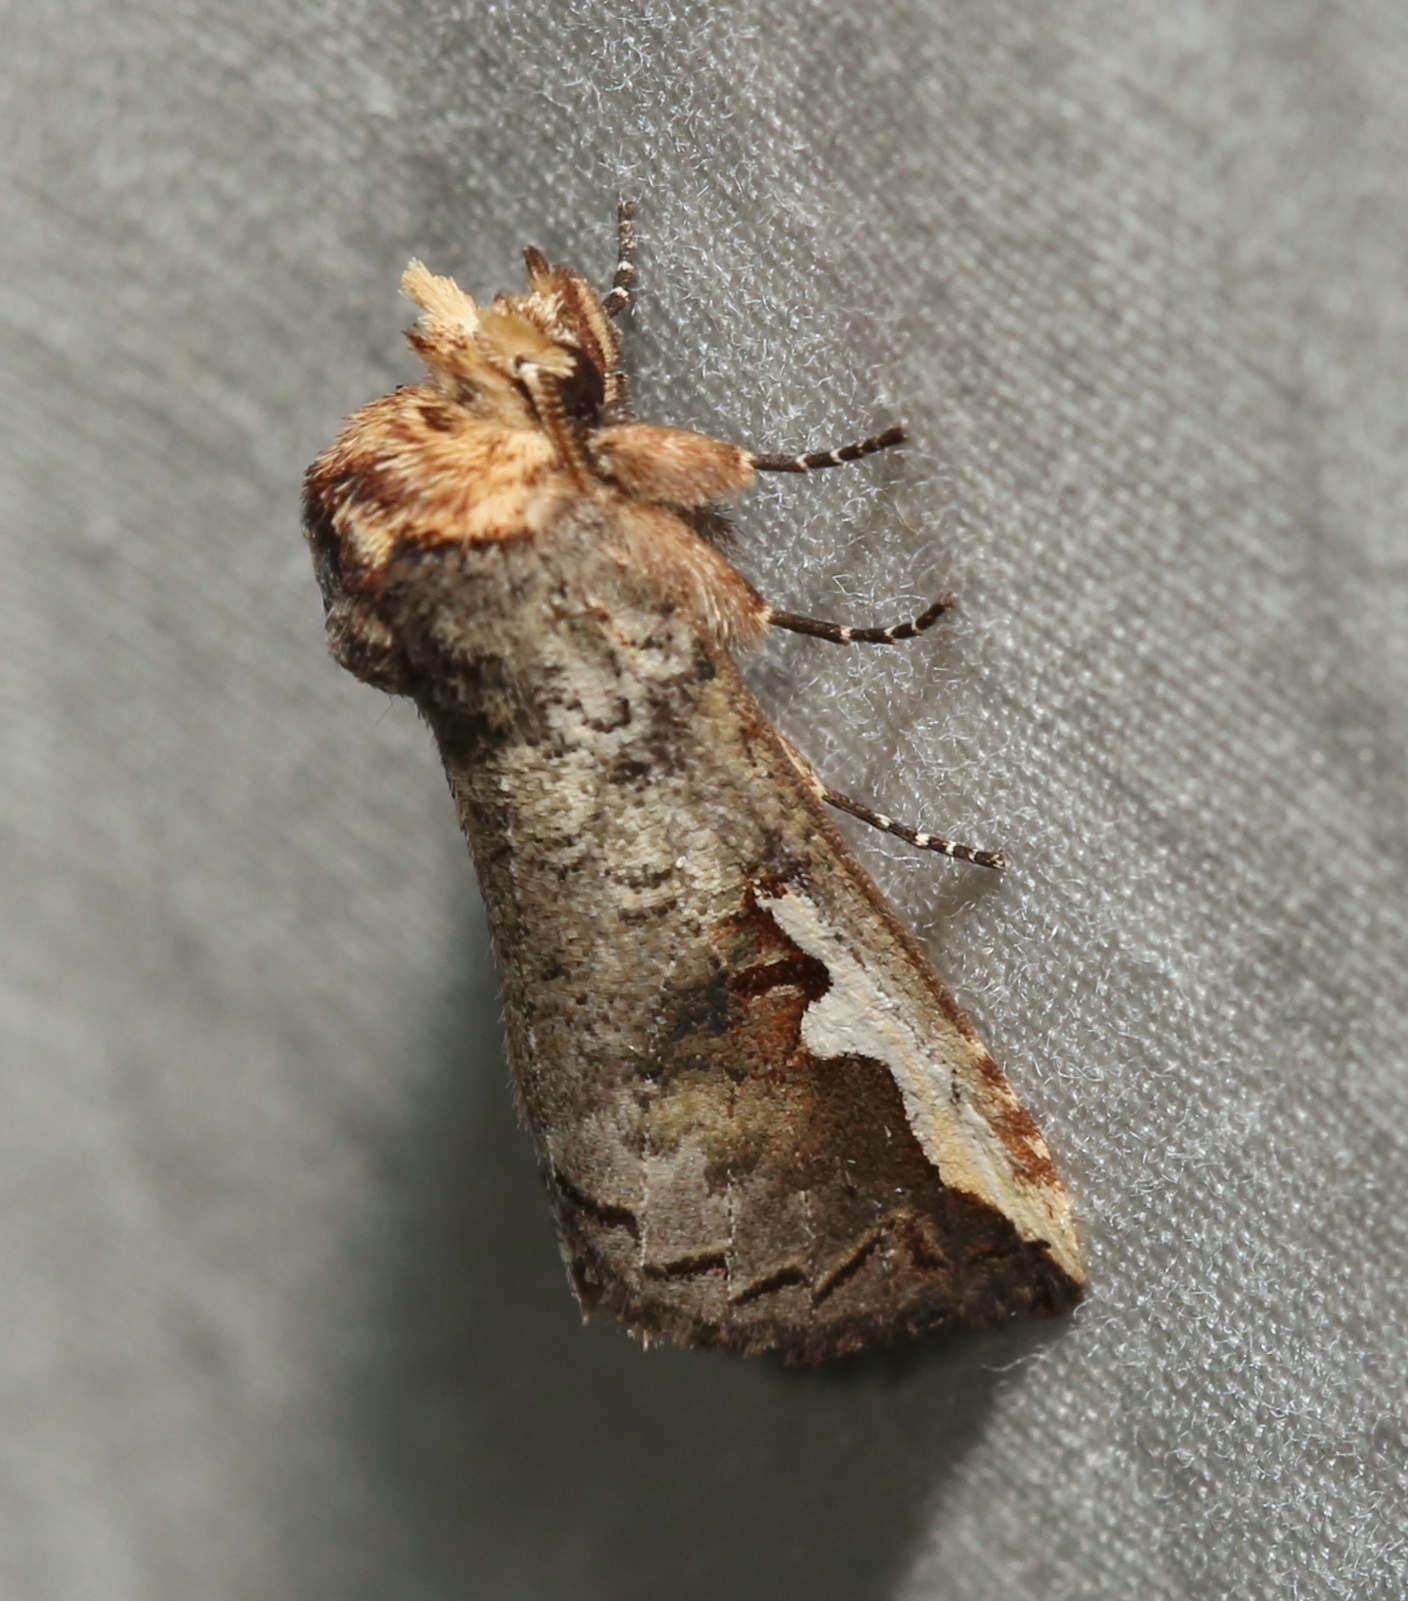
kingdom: Animalia
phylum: Arthropoda
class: Insecta
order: Lepidoptera
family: Notodontidae
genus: Symmerista
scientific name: Symmerista albifrons
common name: White-headed prominent
